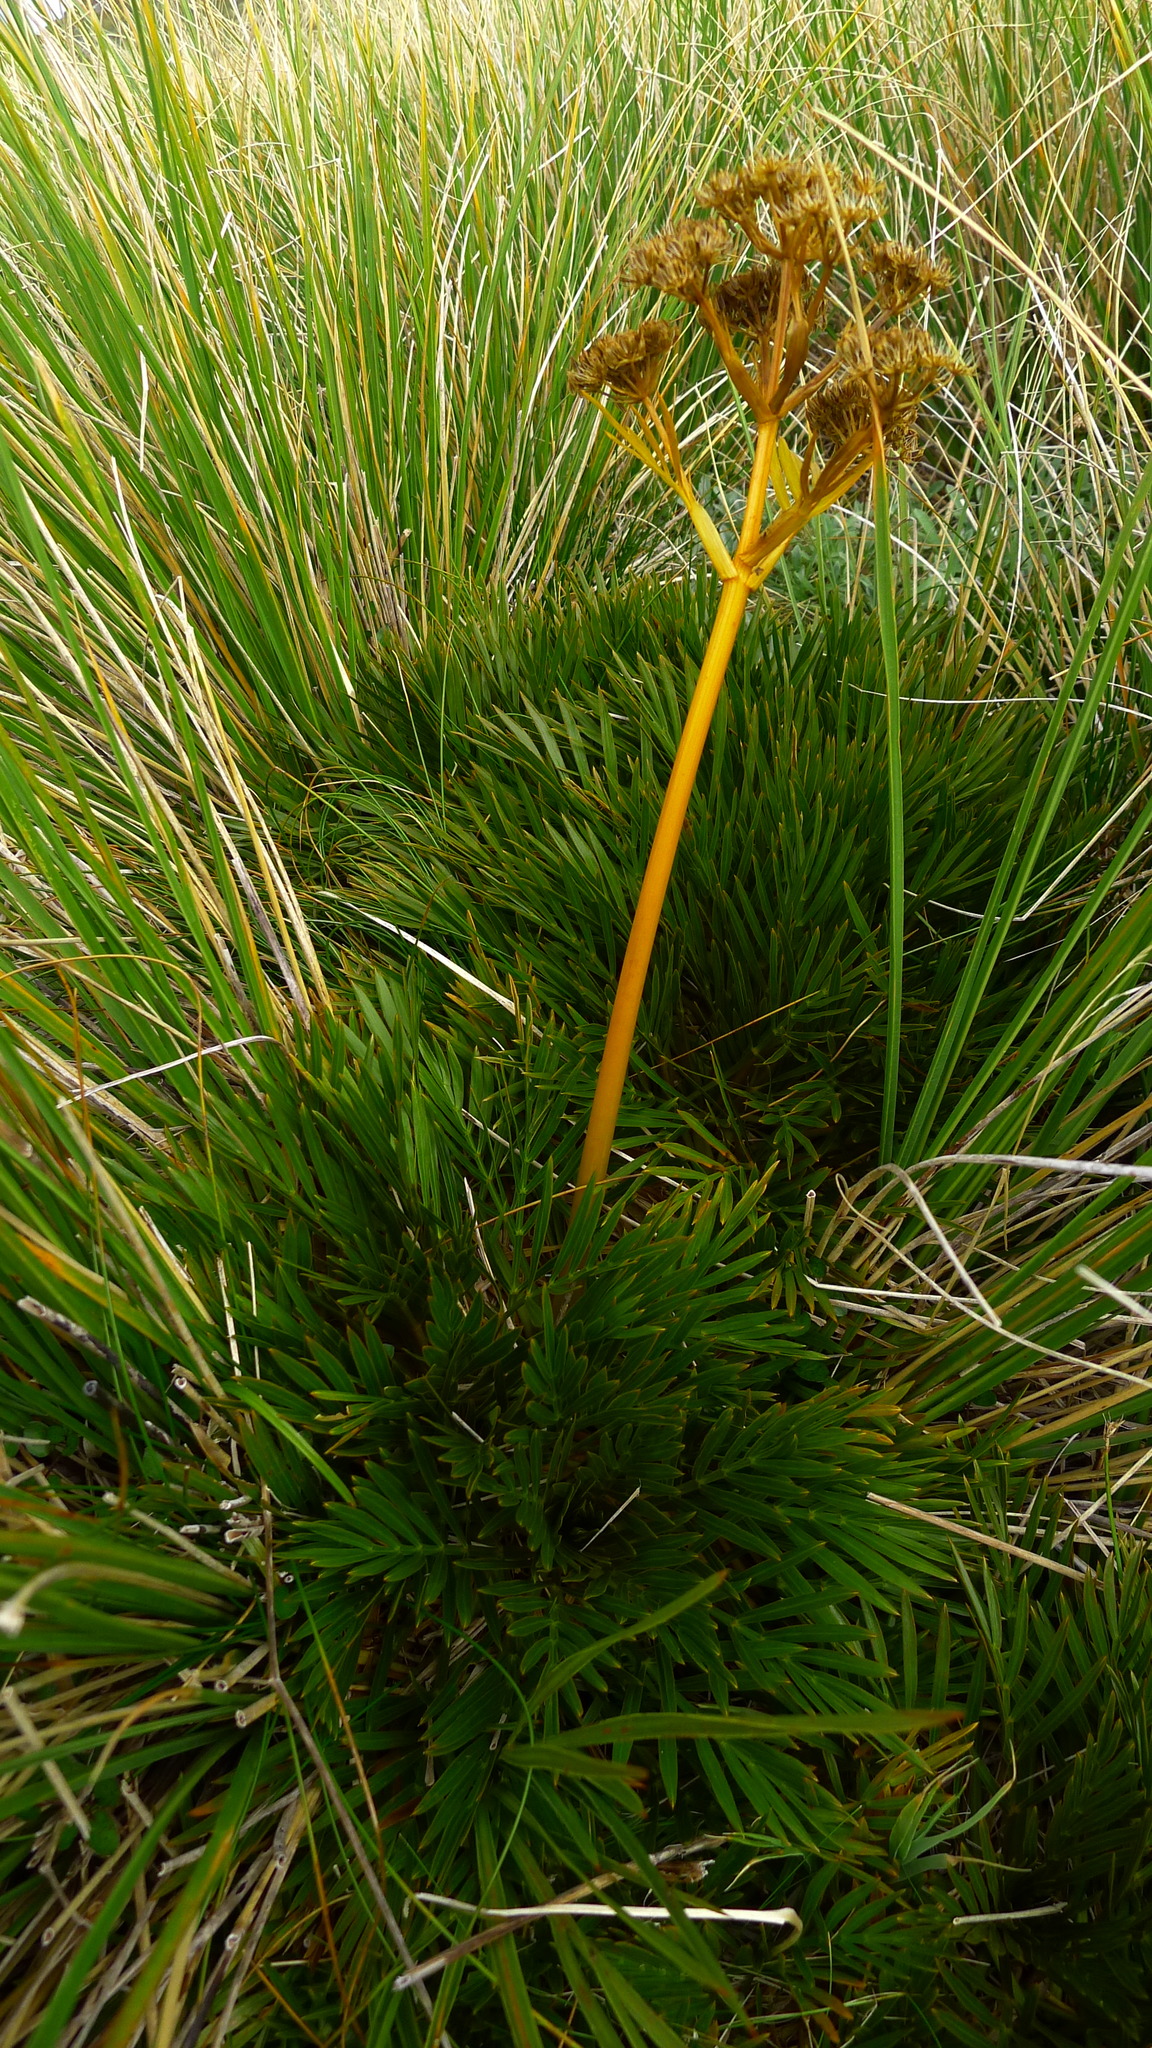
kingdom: Plantae
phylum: Tracheophyta
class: Magnoliopsida
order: Apiales
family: Apiaceae
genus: Aciphylla
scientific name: Aciphylla similis
